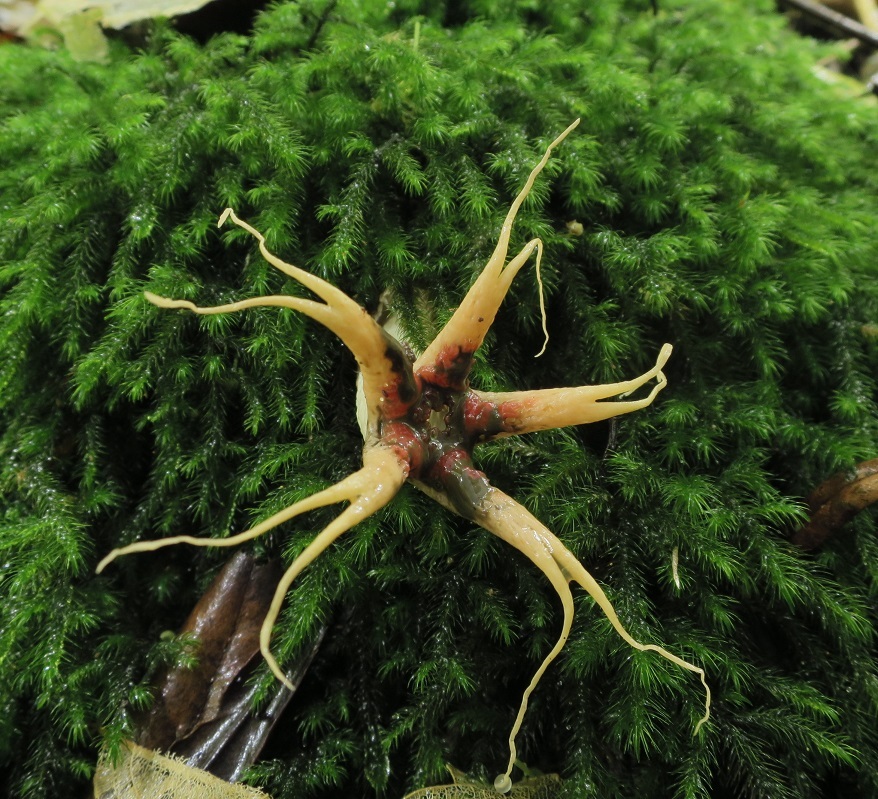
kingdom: Fungi
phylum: Basidiomycota
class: Agaricomycetes
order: Phallales
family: Phallaceae
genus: Aseroe
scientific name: Aseroe rubra
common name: Starfish fungus
